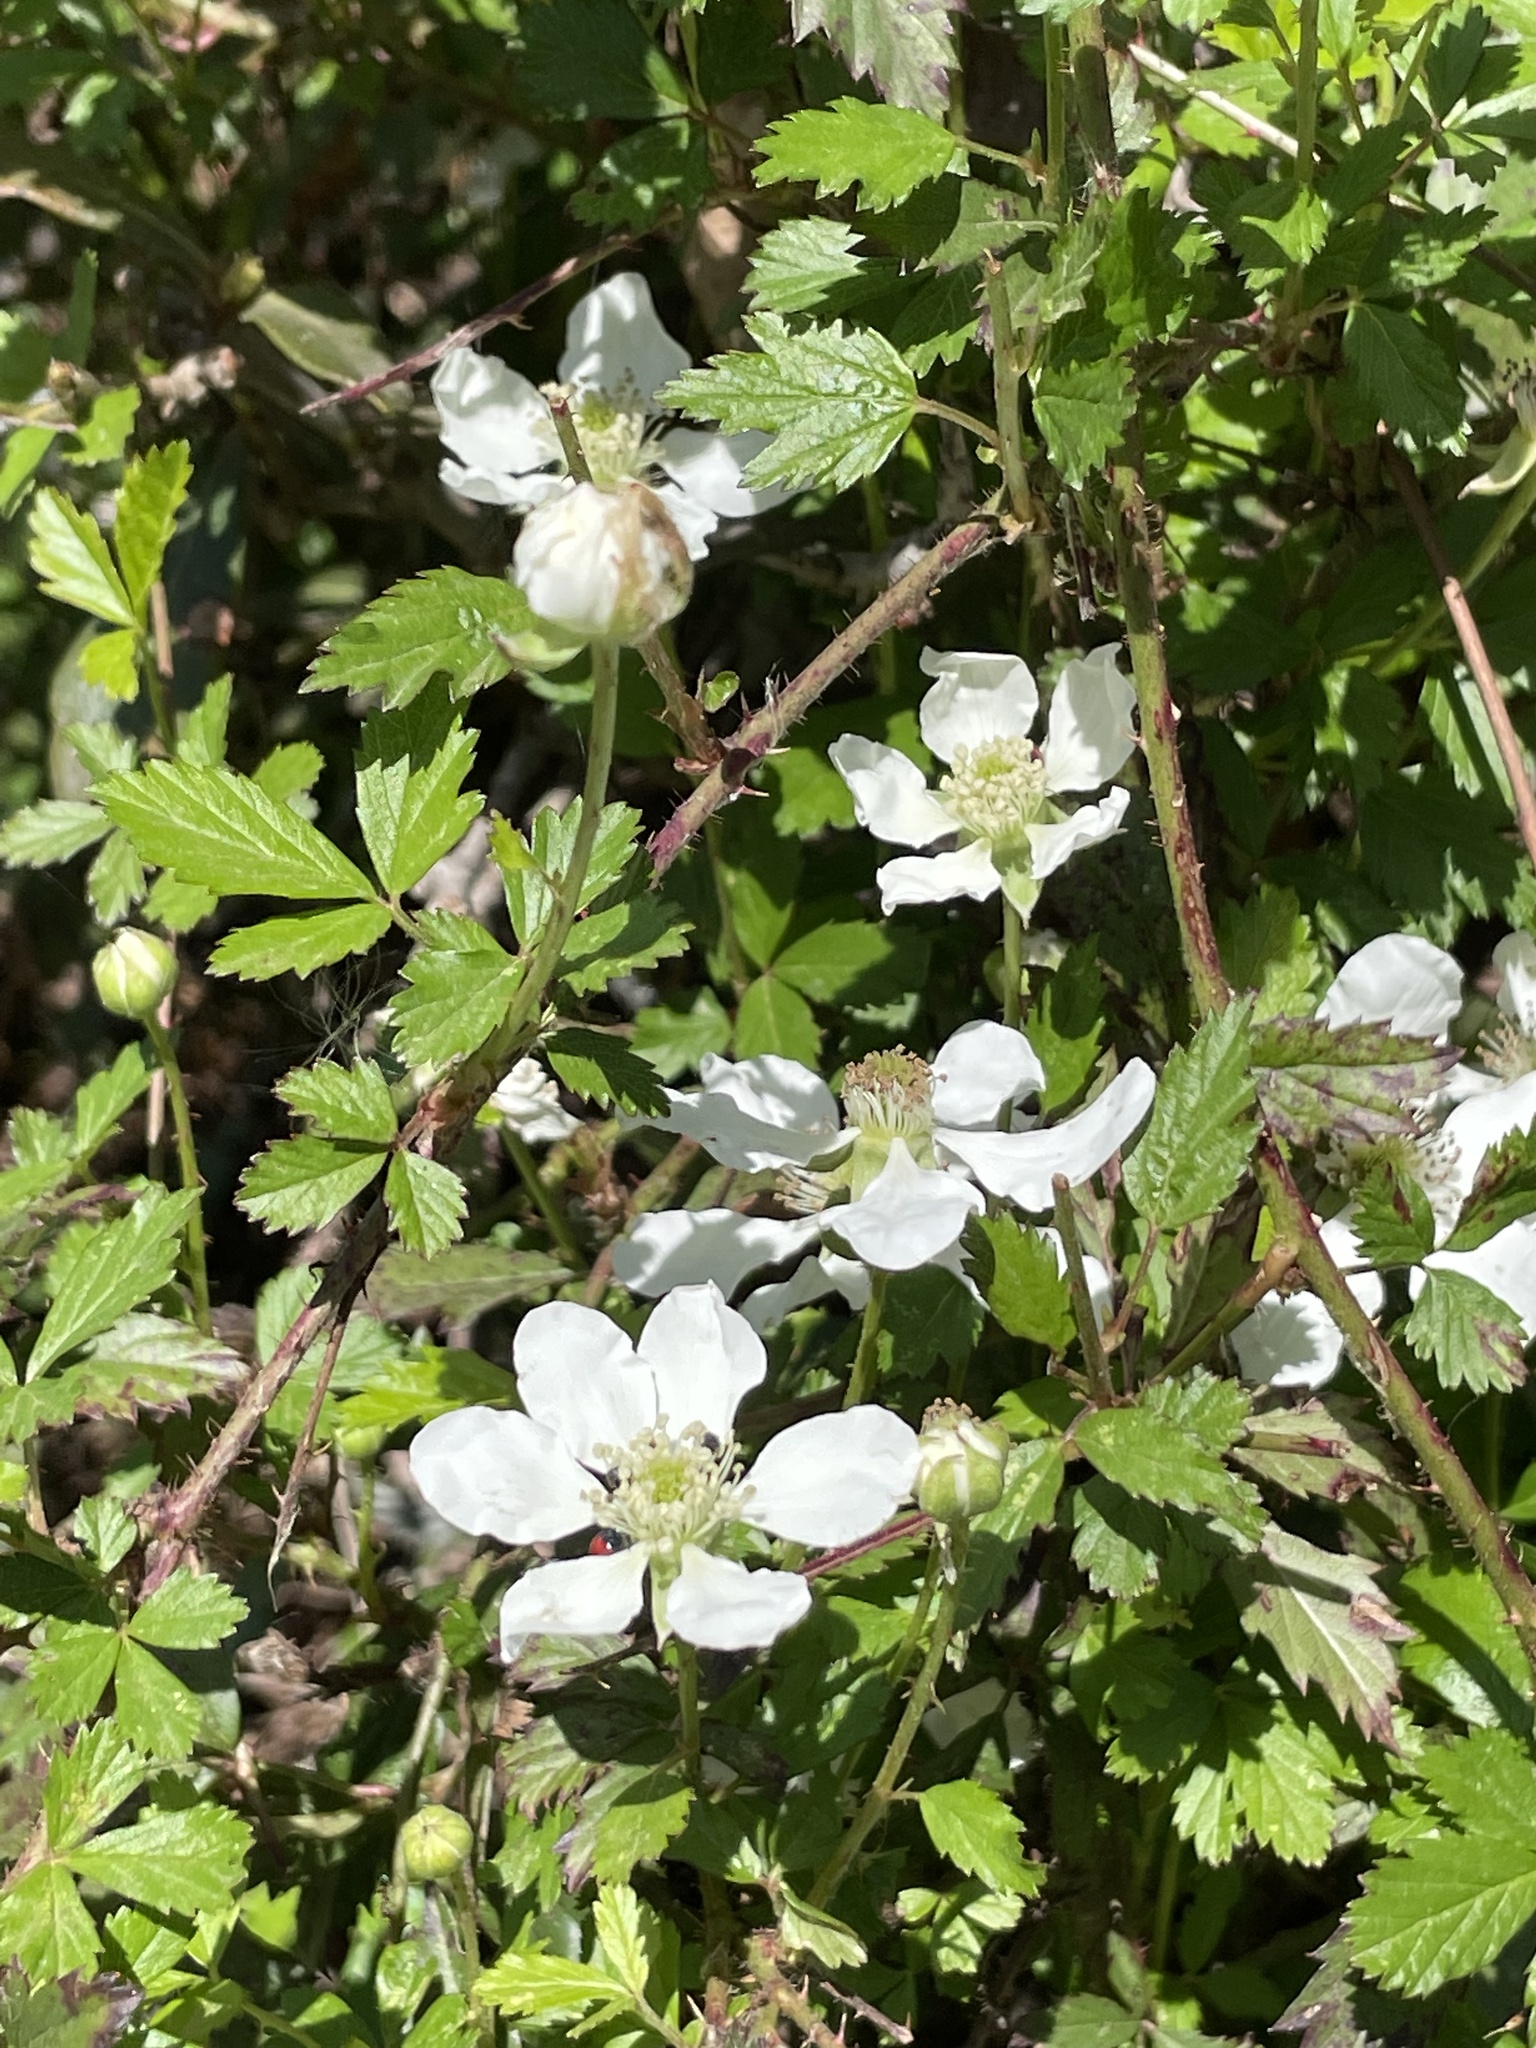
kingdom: Plantae
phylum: Tracheophyta
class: Magnoliopsida
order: Rosales
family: Rosaceae
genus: Rubus
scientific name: Rubus trivialis
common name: Southern dewberry
